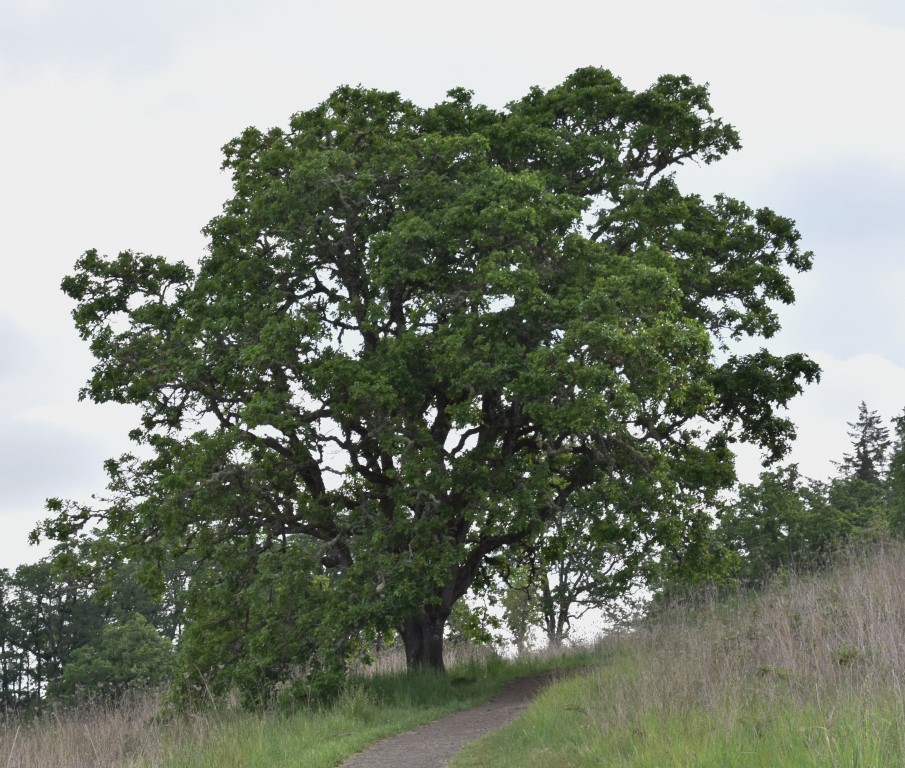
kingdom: Plantae
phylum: Tracheophyta
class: Magnoliopsida
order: Fagales
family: Fagaceae
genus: Quercus
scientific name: Quercus garryana
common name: Garry oak
